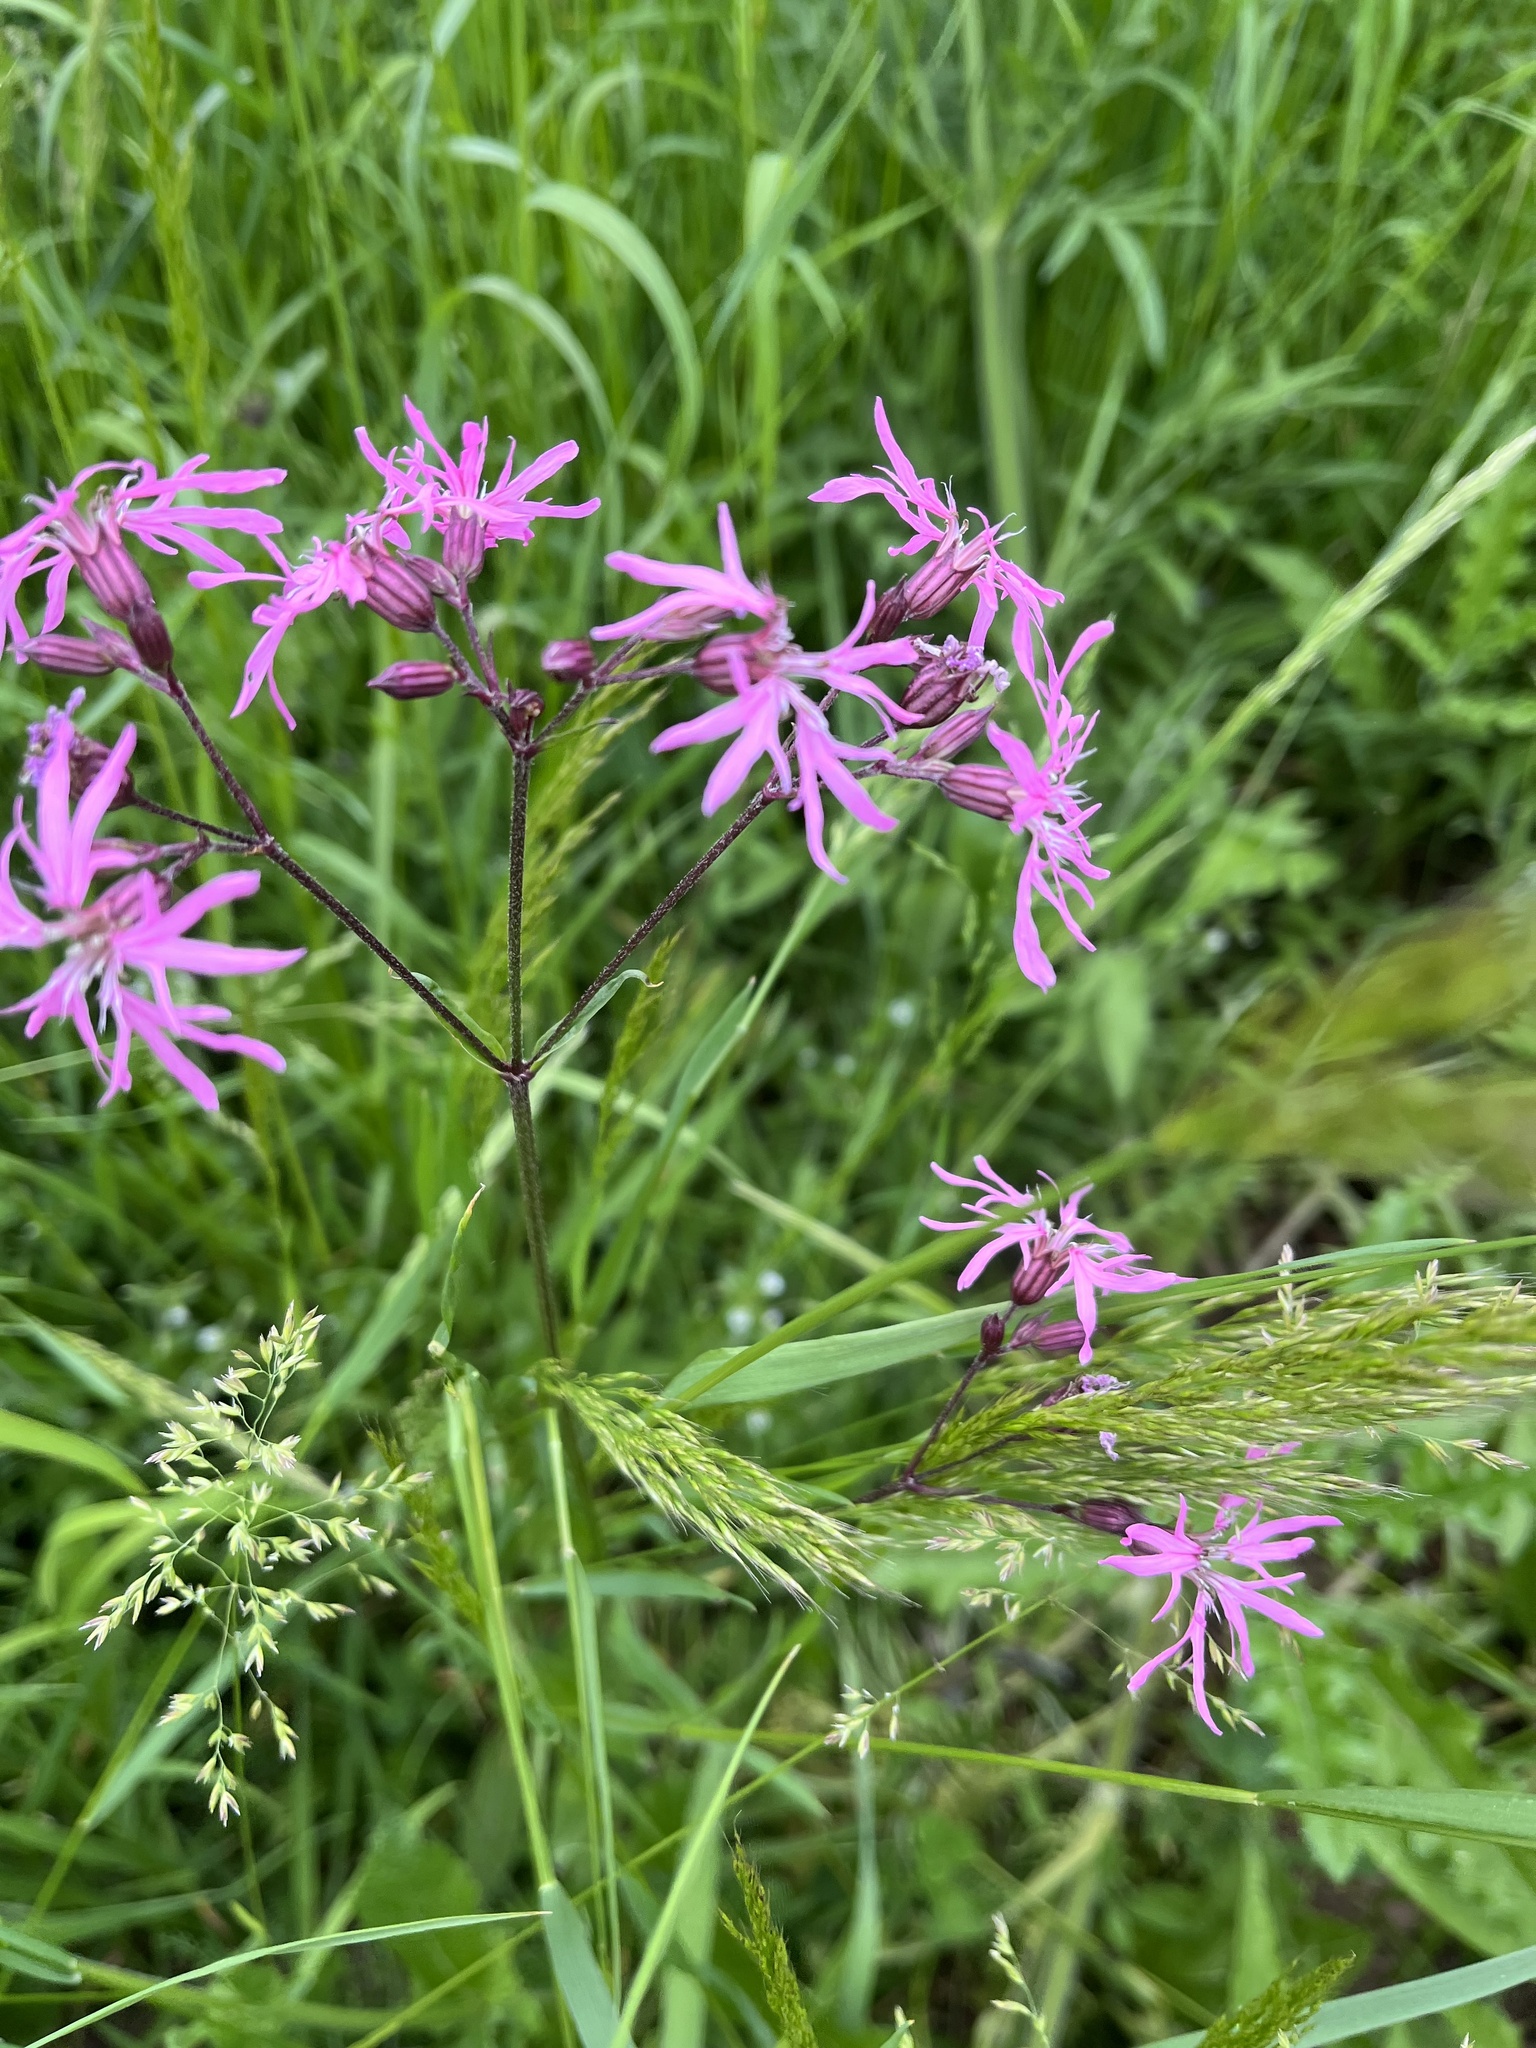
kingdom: Plantae
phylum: Tracheophyta
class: Magnoliopsida
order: Caryophyllales
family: Caryophyllaceae
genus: Silene
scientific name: Silene flos-cuculi
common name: Ragged-robin
